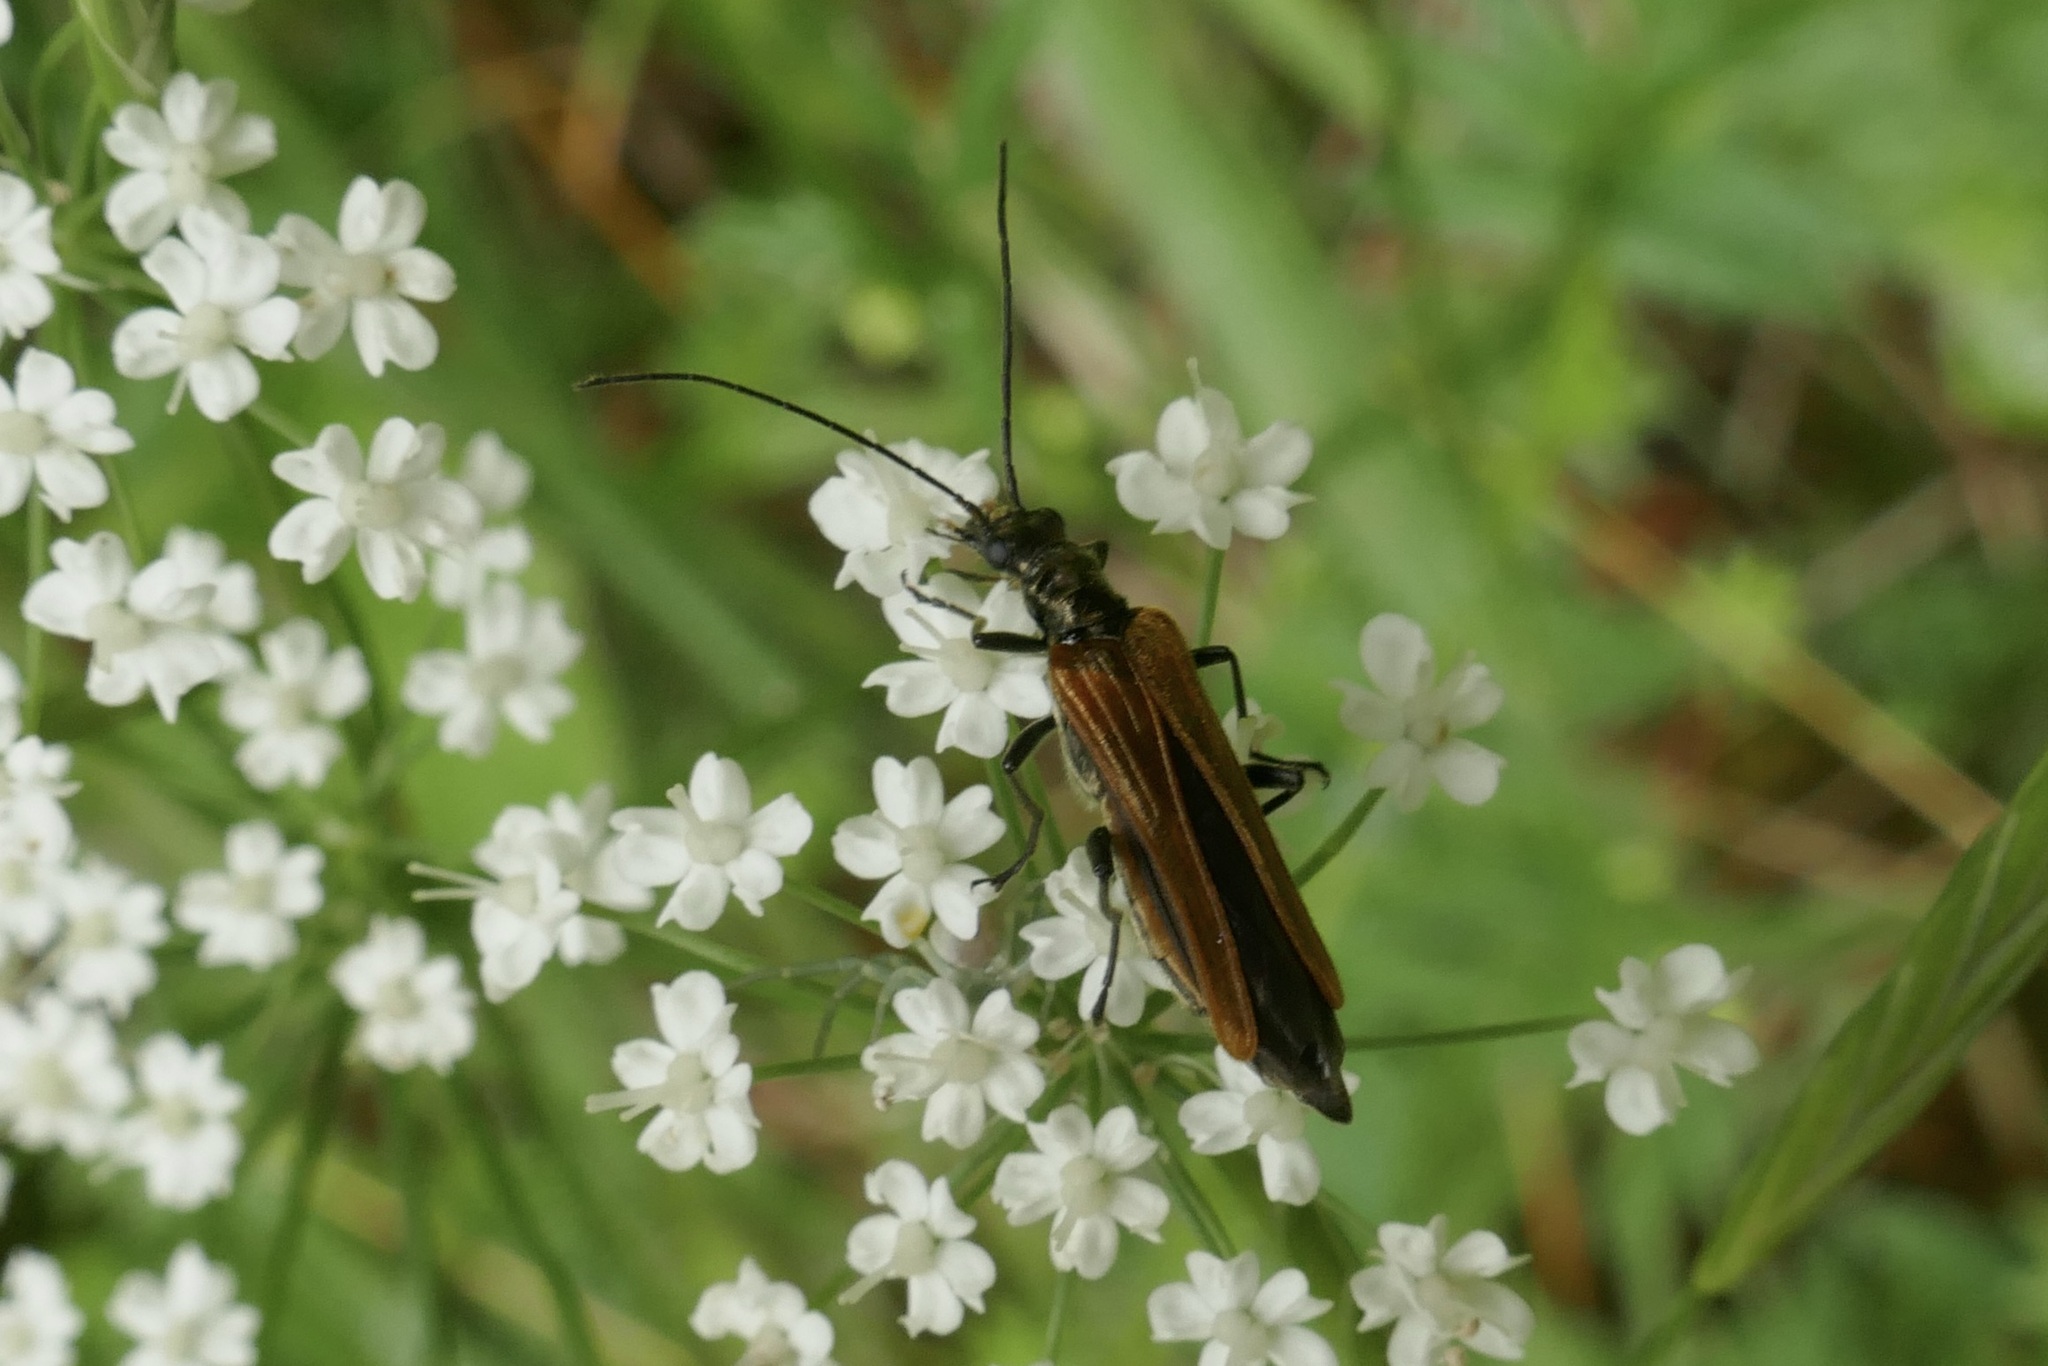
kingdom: Animalia
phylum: Arthropoda
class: Insecta
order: Coleoptera
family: Oedemeridae
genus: Oedemera
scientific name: Oedemera femorata
